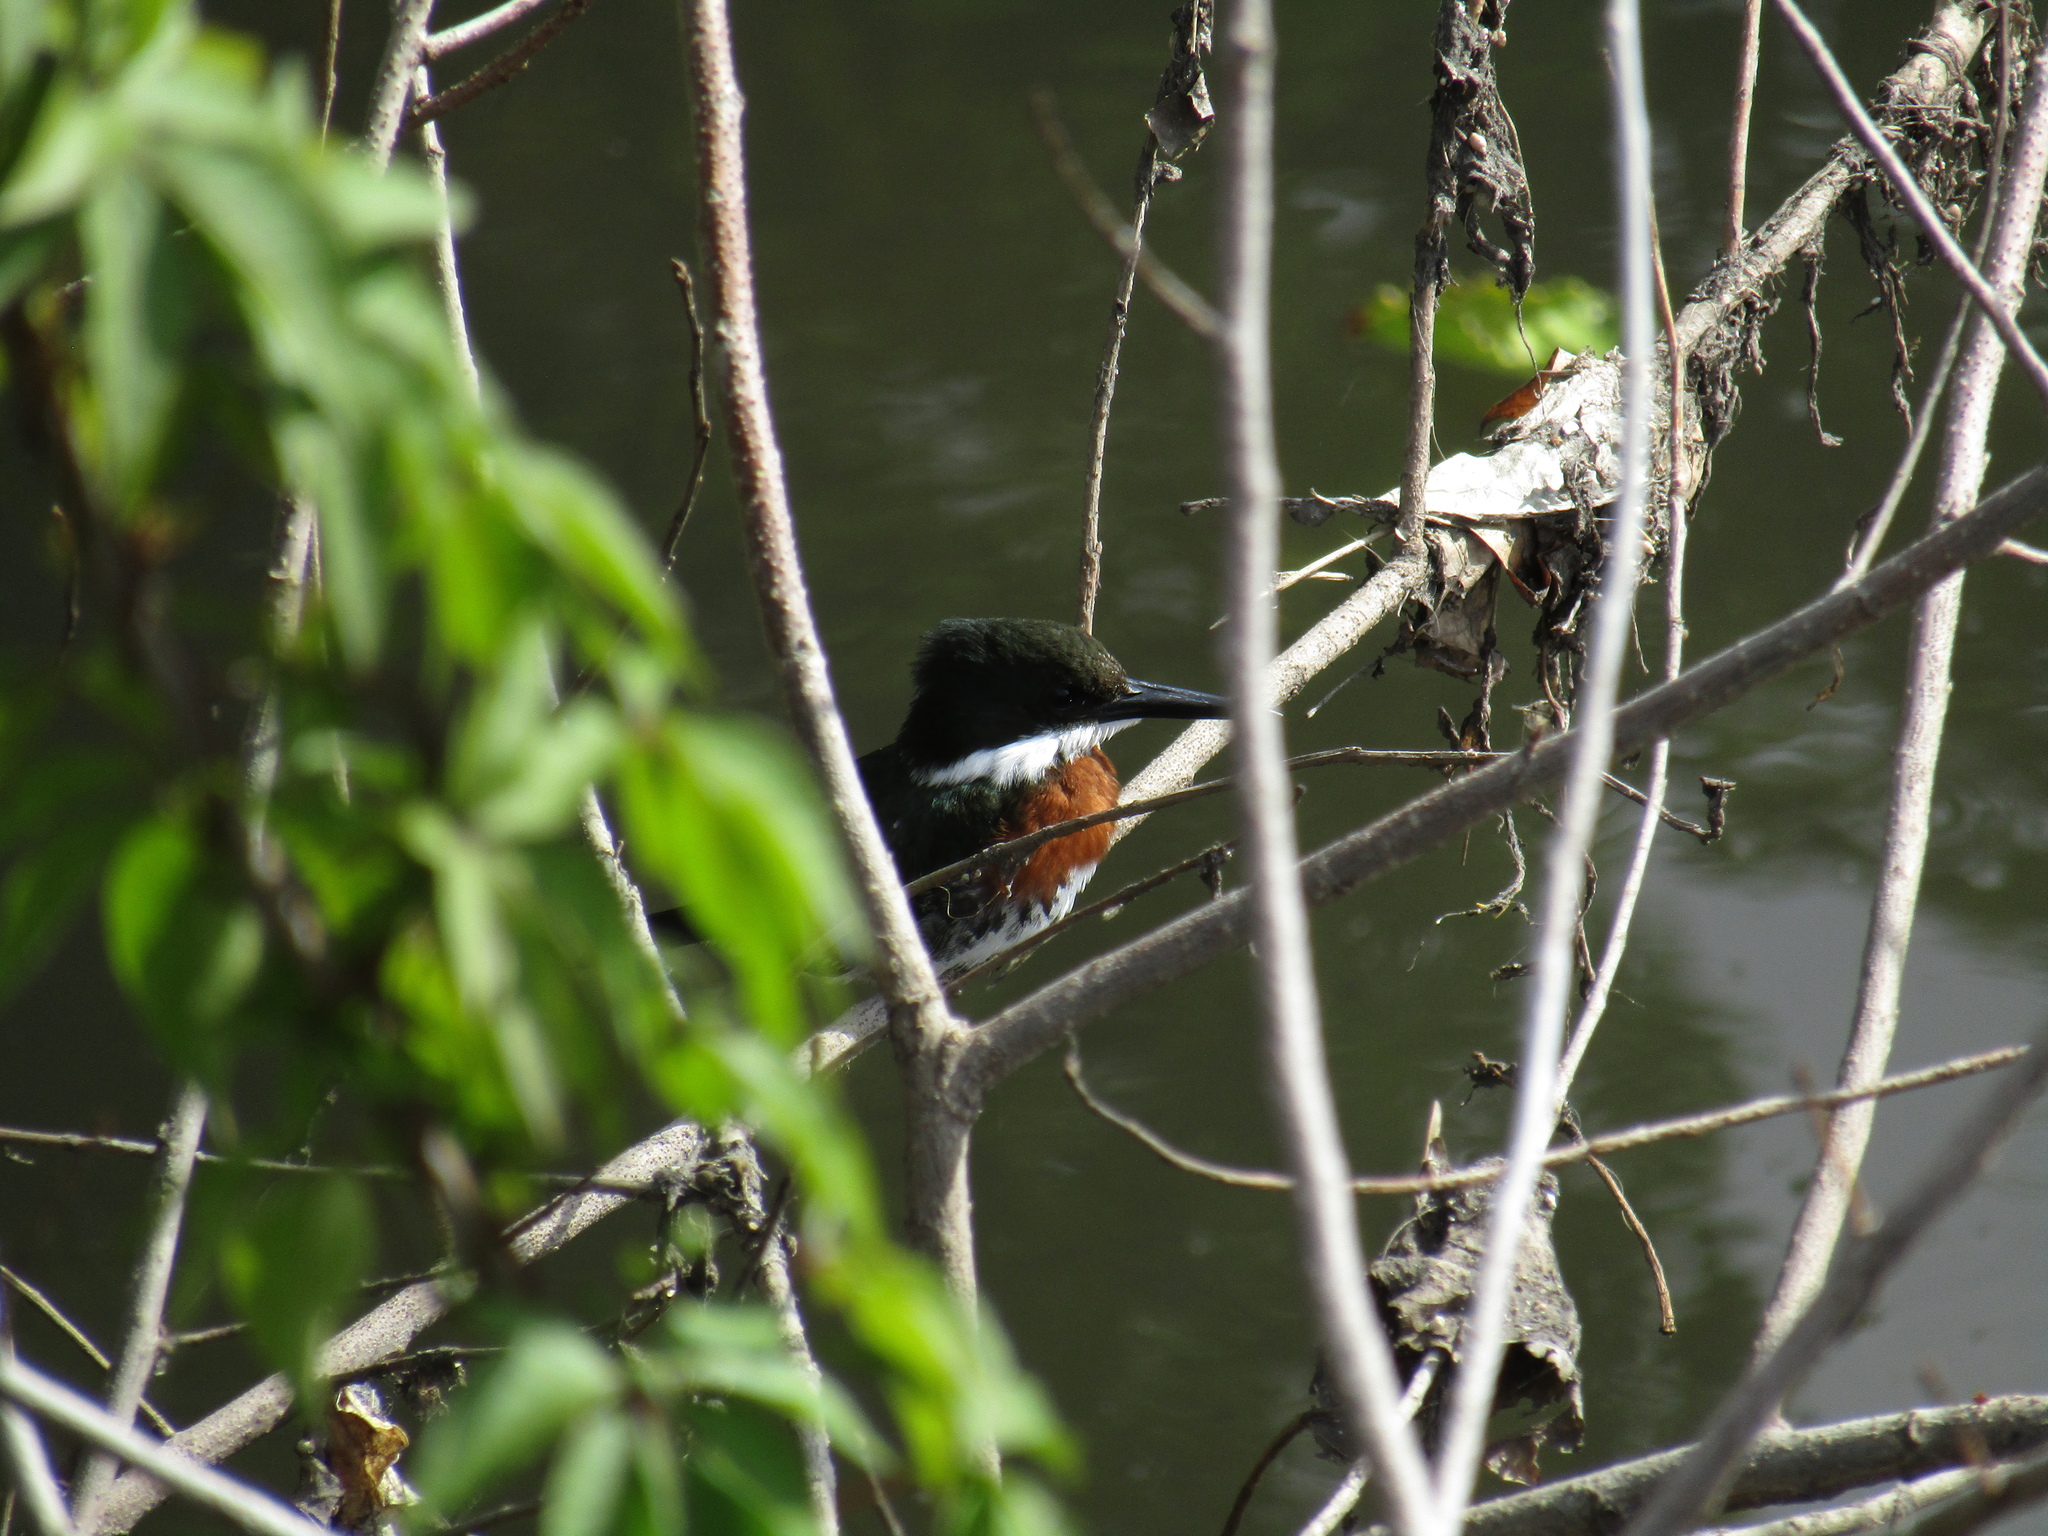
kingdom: Animalia
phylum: Chordata
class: Aves
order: Coraciiformes
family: Alcedinidae
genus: Chloroceryle
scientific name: Chloroceryle americana
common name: Green kingfisher
